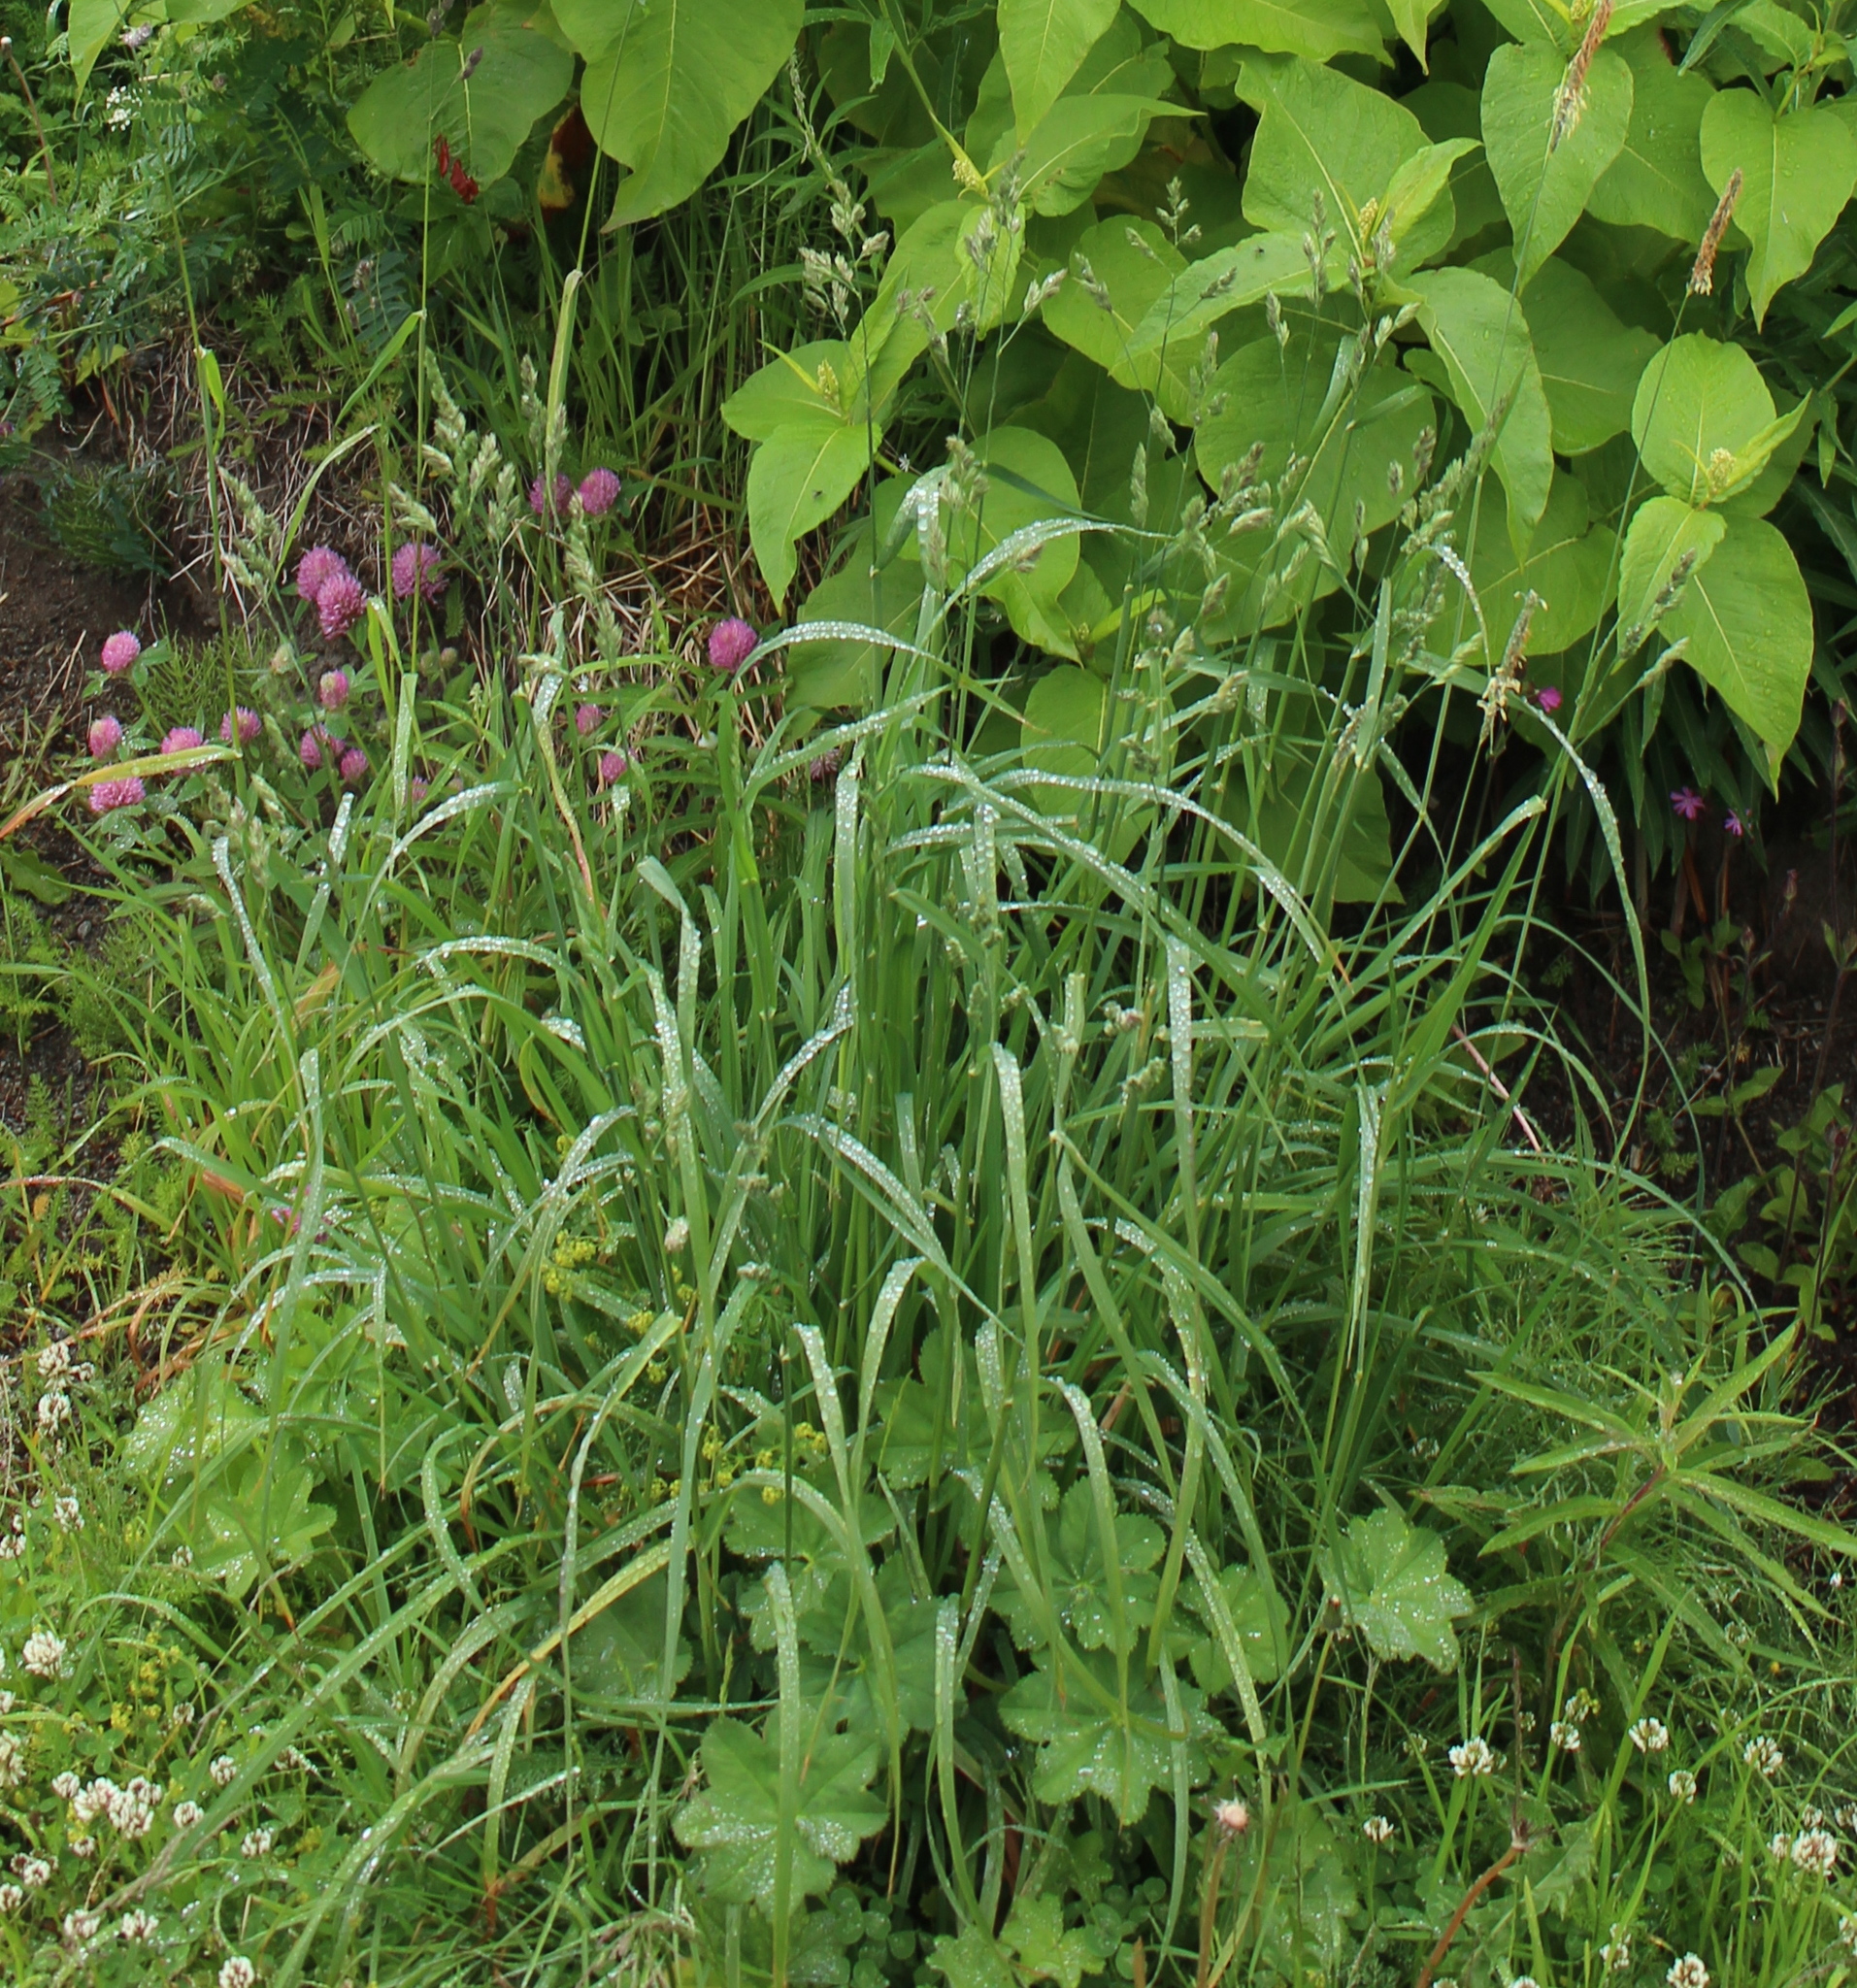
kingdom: Plantae
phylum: Tracheophyta
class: Liliopsida
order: Poales
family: Poaceae
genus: Dactylis
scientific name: Dactylis glomerata
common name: Orchardgrass
